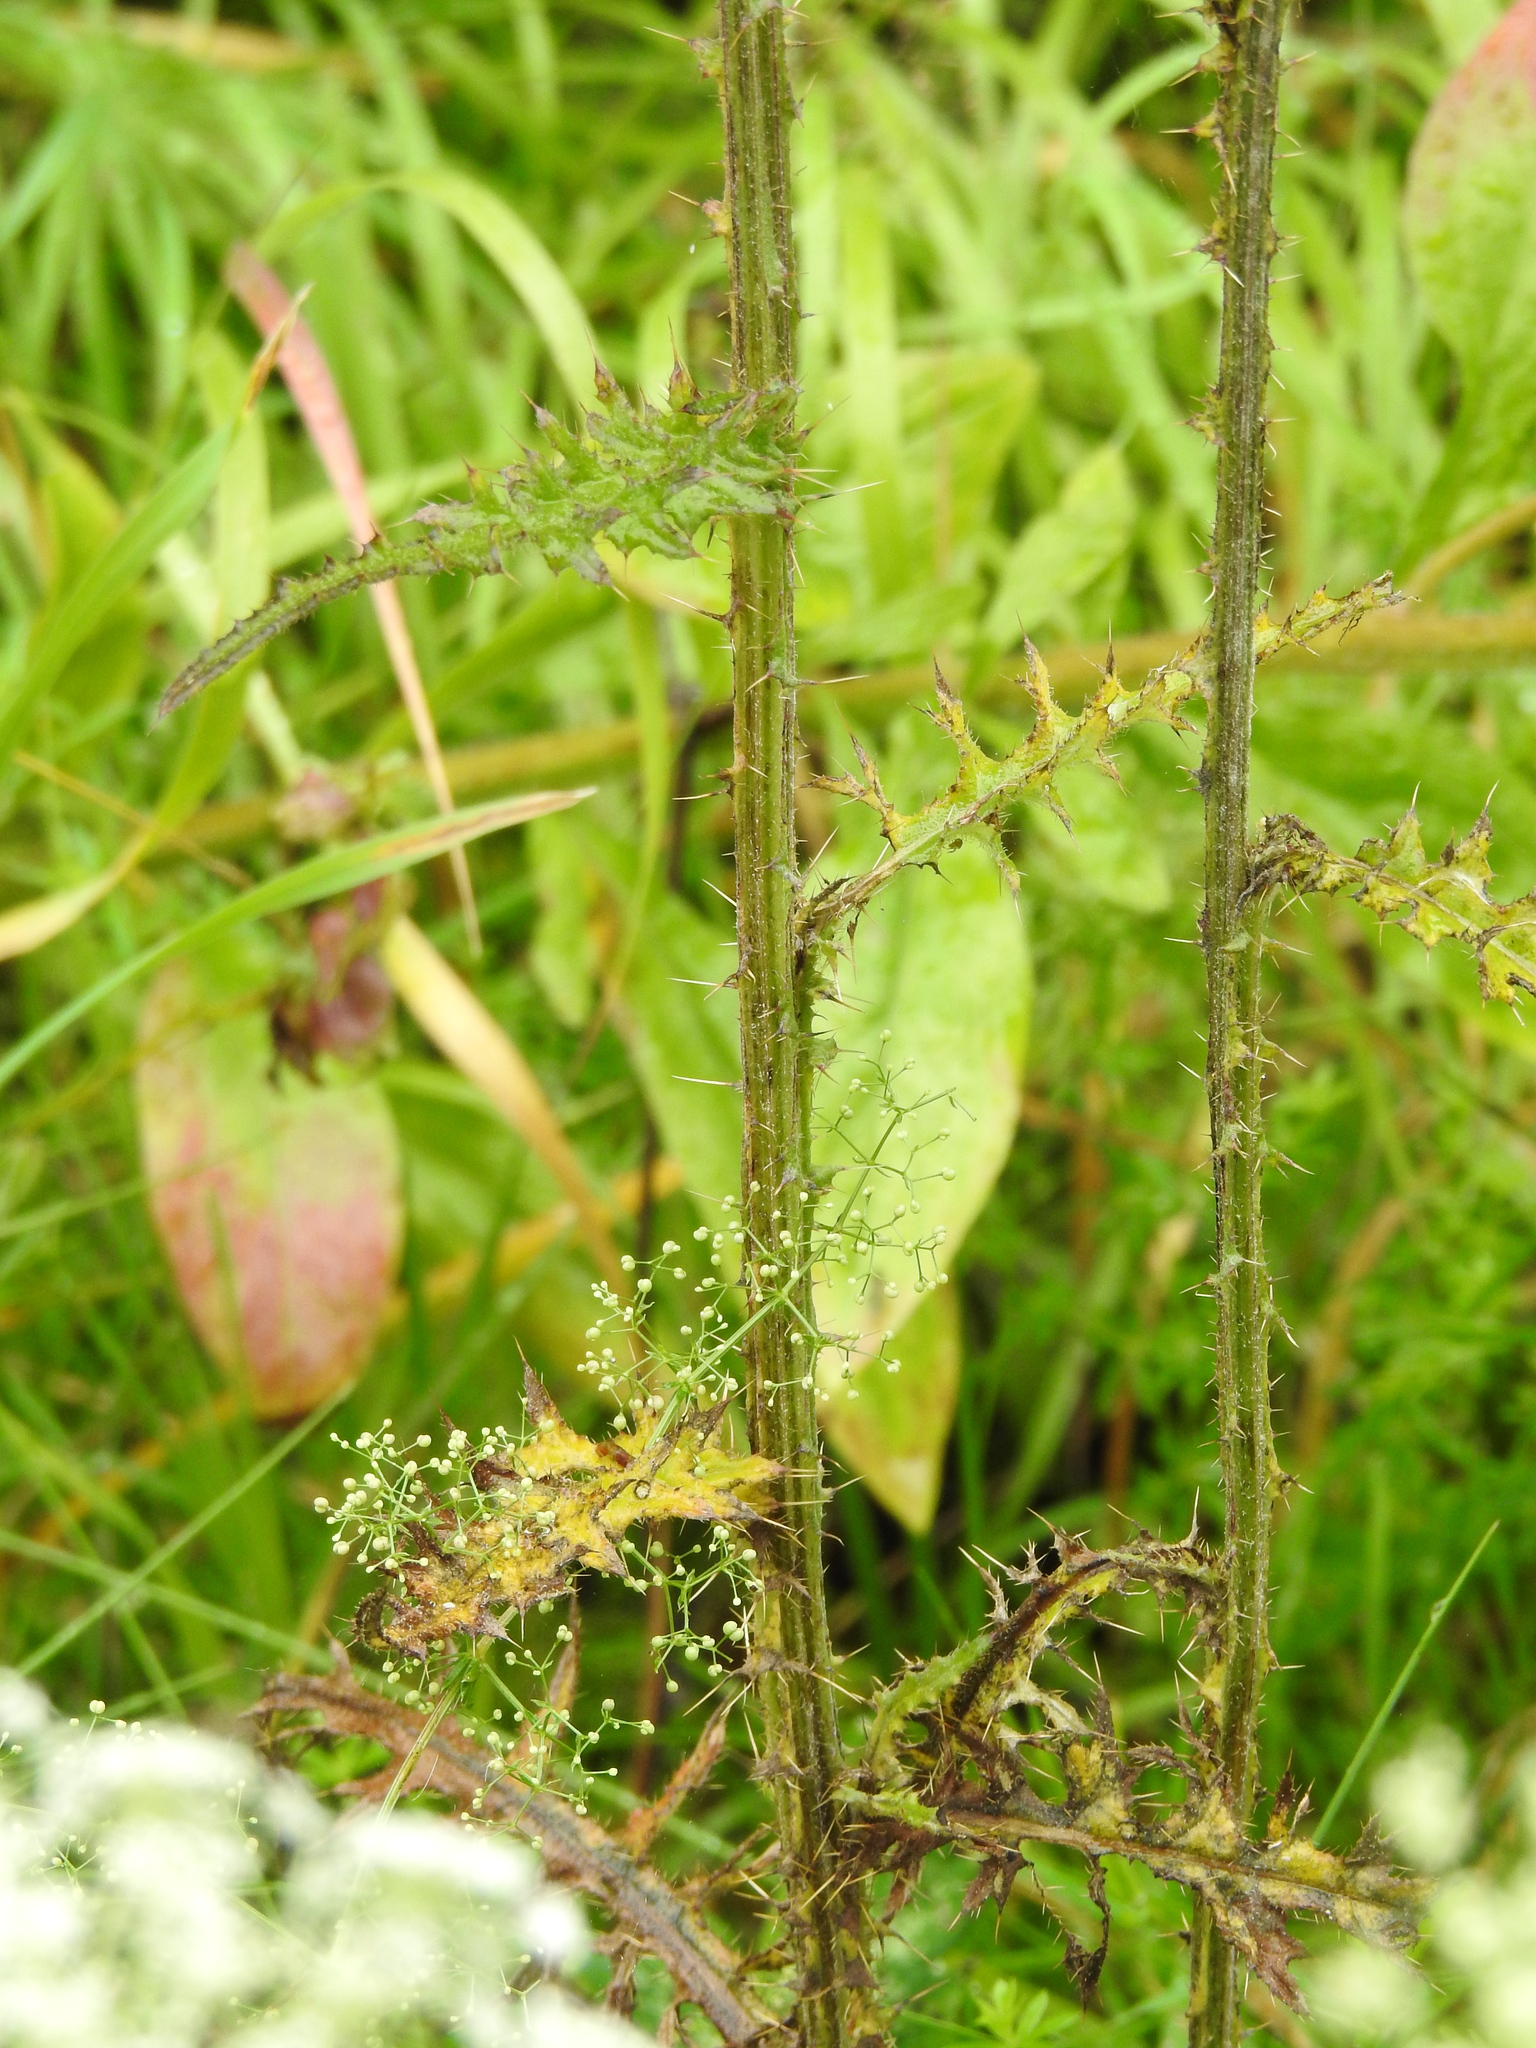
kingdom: Plantae
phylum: Tracheophyta
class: Magnoliopsida
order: Asterales
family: Asteraceae
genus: Cirsium
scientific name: Cirsium palustre
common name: Marsh thistle
